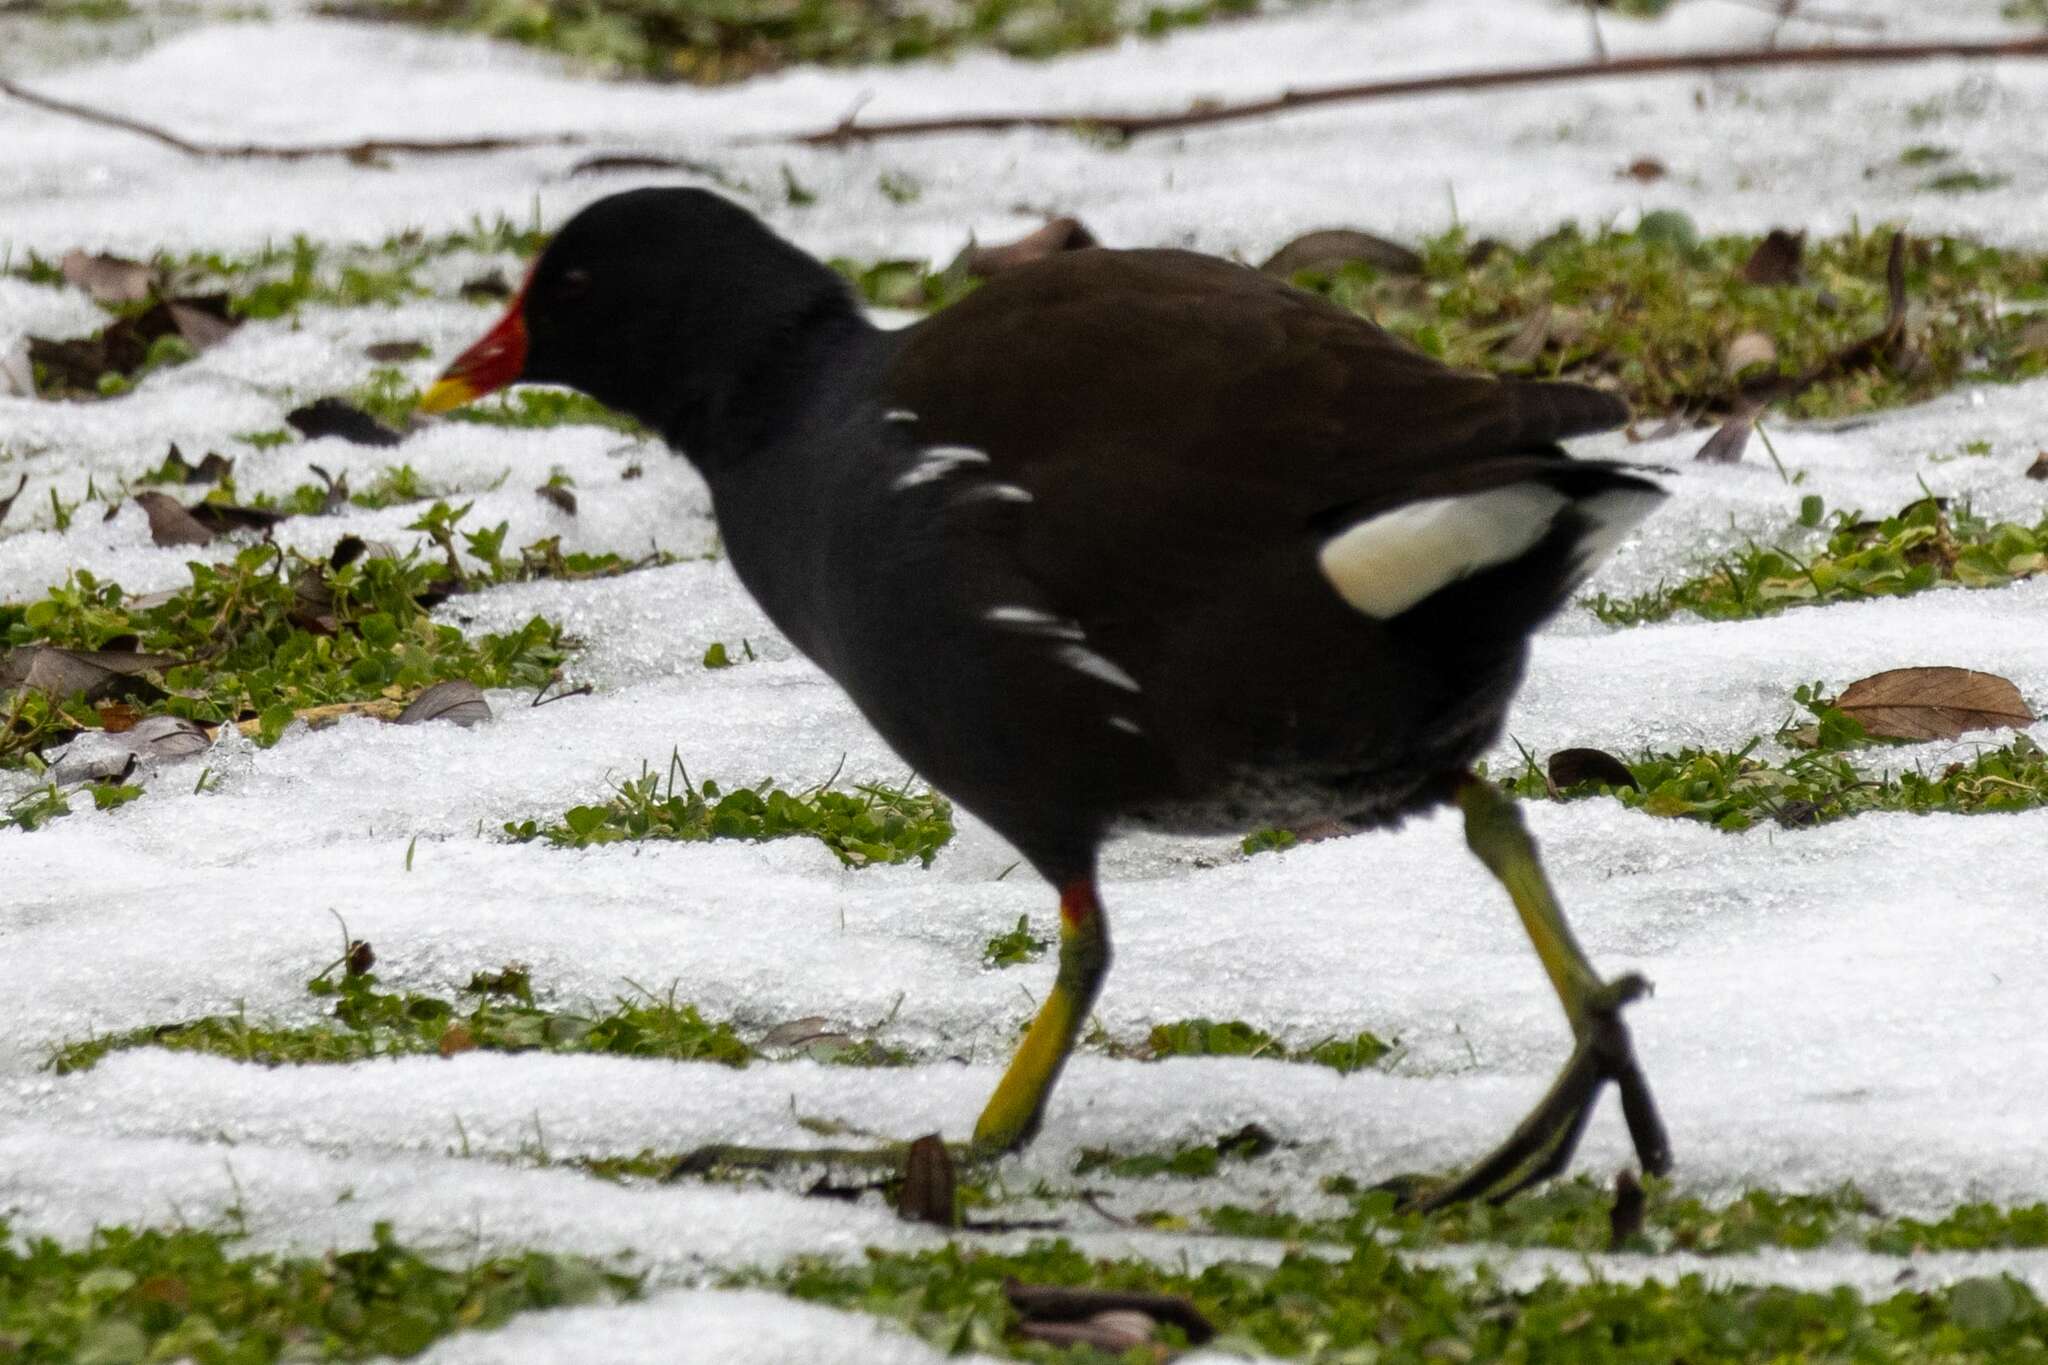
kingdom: Animalia
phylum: Chordata
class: Aves
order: Gruiformes
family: Rallidae
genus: Gallinula
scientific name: Gallinula chloropus
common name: Common moorhen
